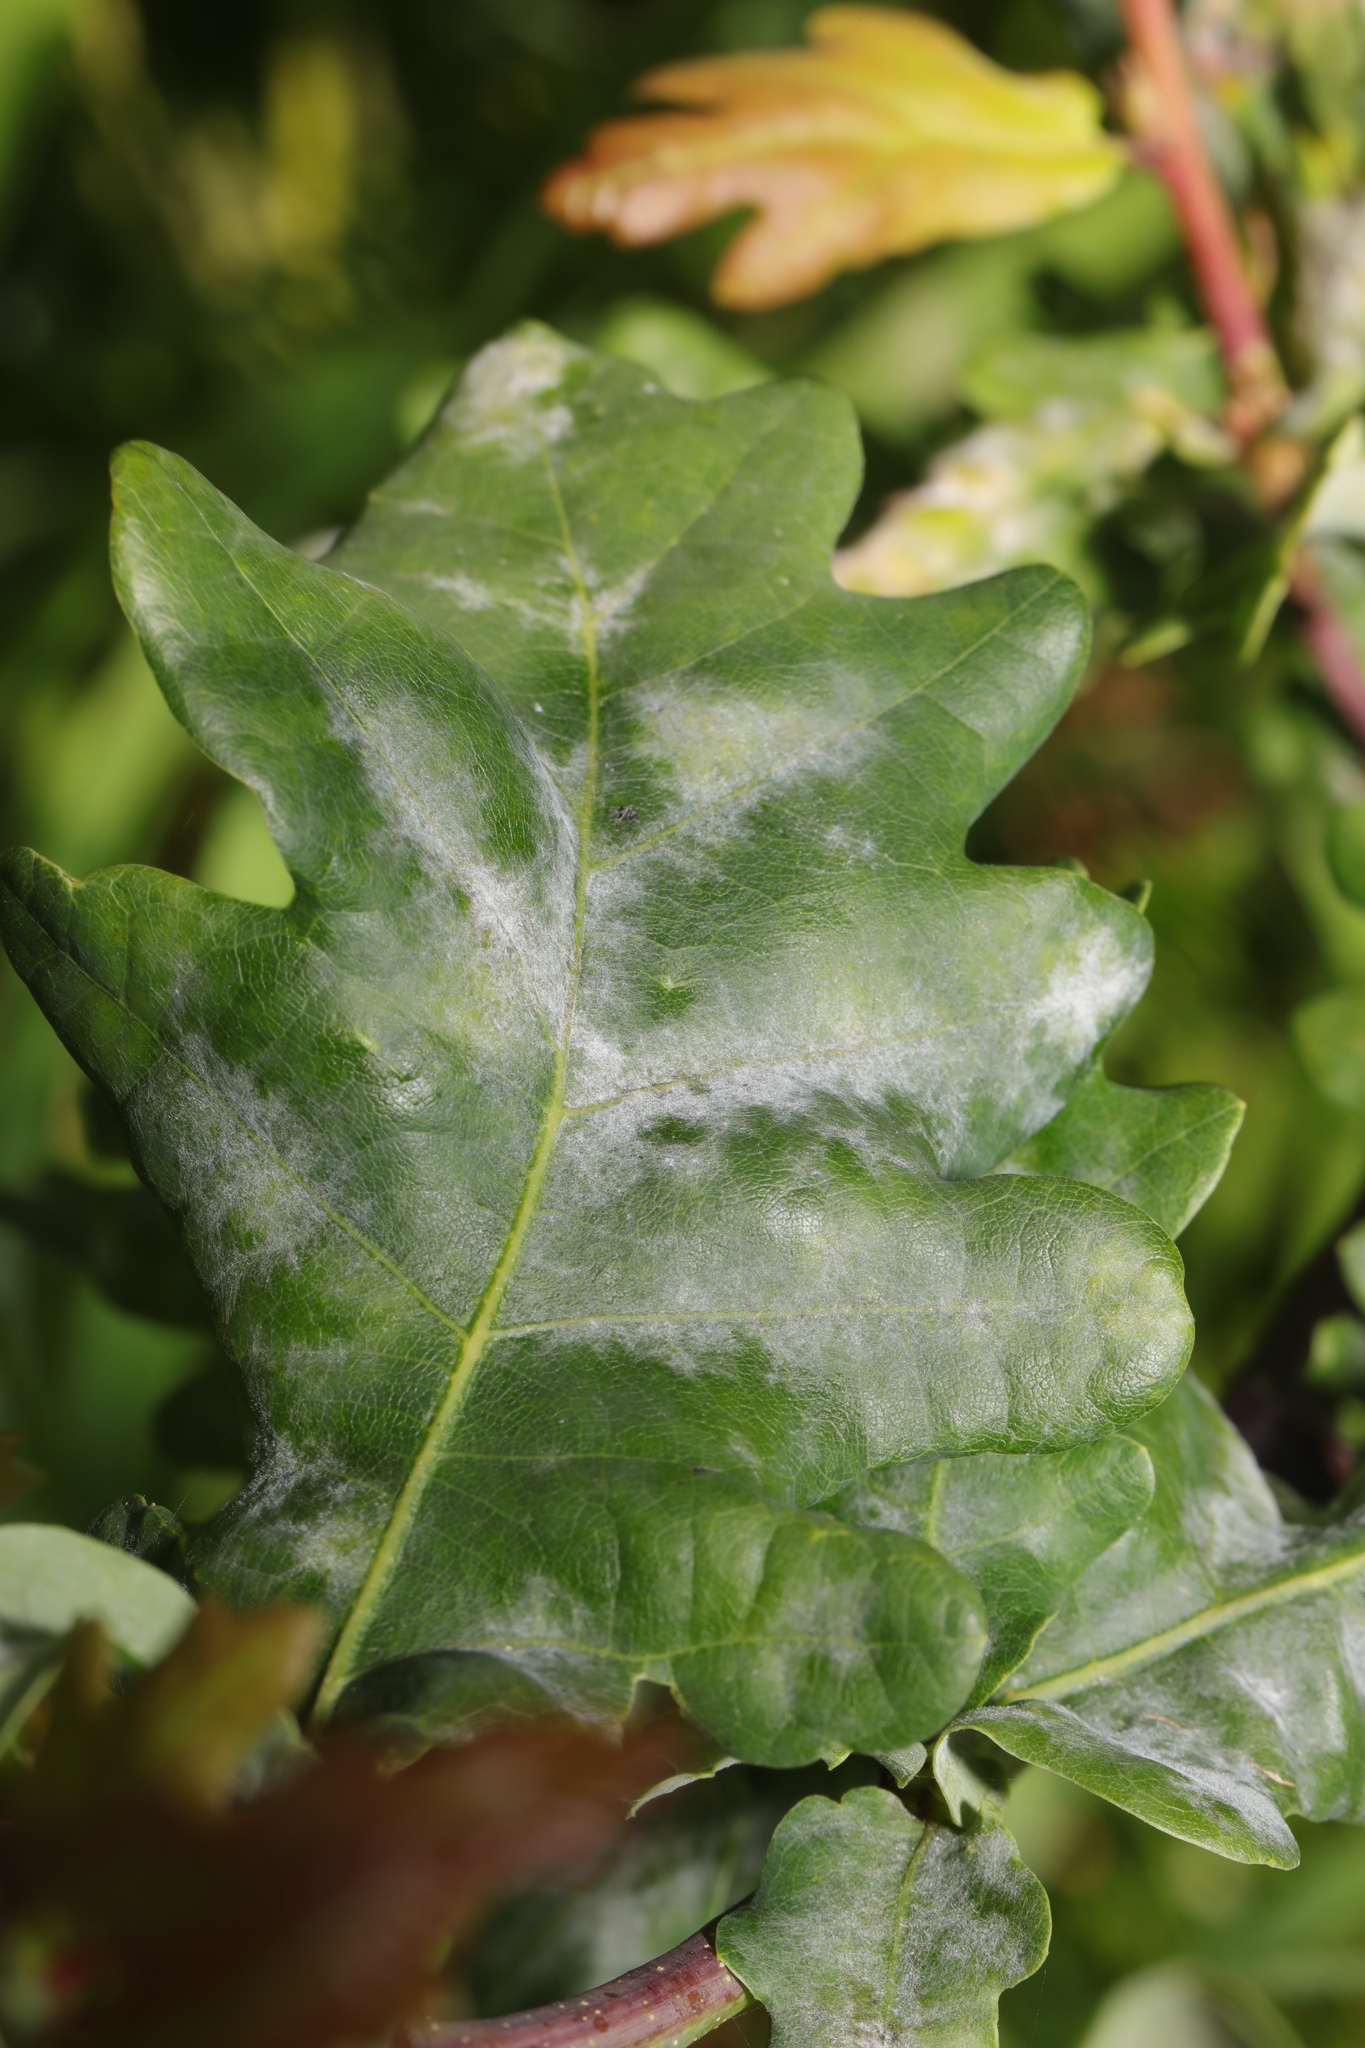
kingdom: Fungi
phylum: Ascomycota
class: Leotiomycetes
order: Helotiales
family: Erysiphaceae
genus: Erysiphe
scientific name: Erysiphe alphitoides
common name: Oak mildew
